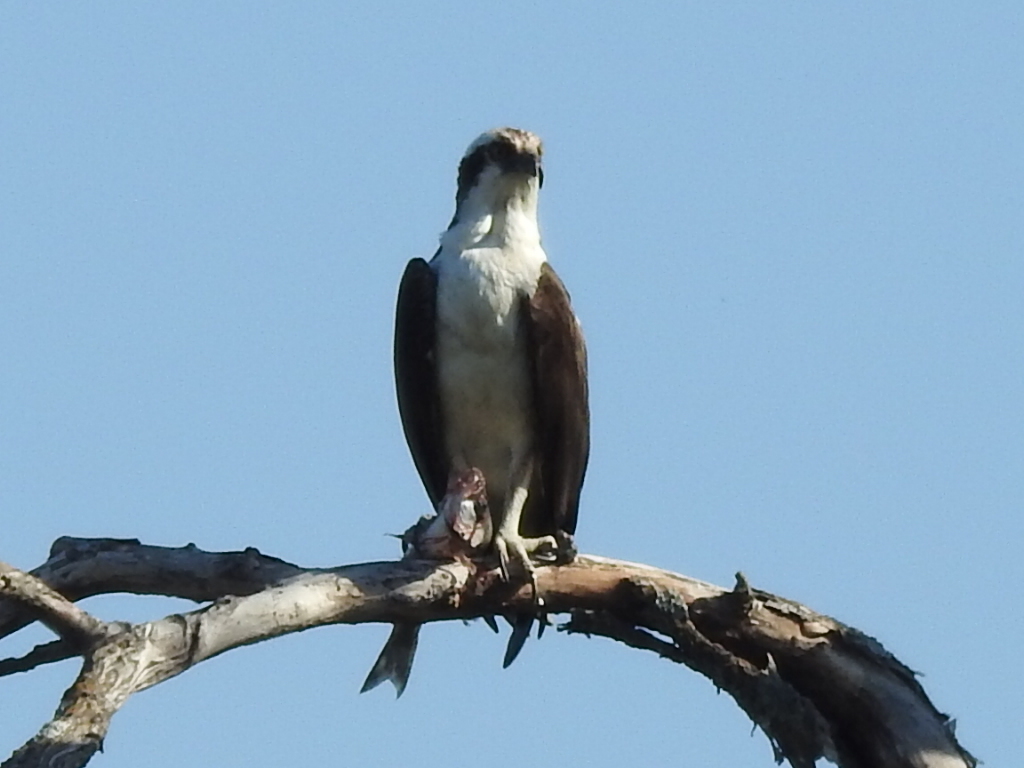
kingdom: Animalia
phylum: Chordata
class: Aves
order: Accipitriformes
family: Pandionidae
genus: Pandion
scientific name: Pandion haliaetus
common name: Osprey
